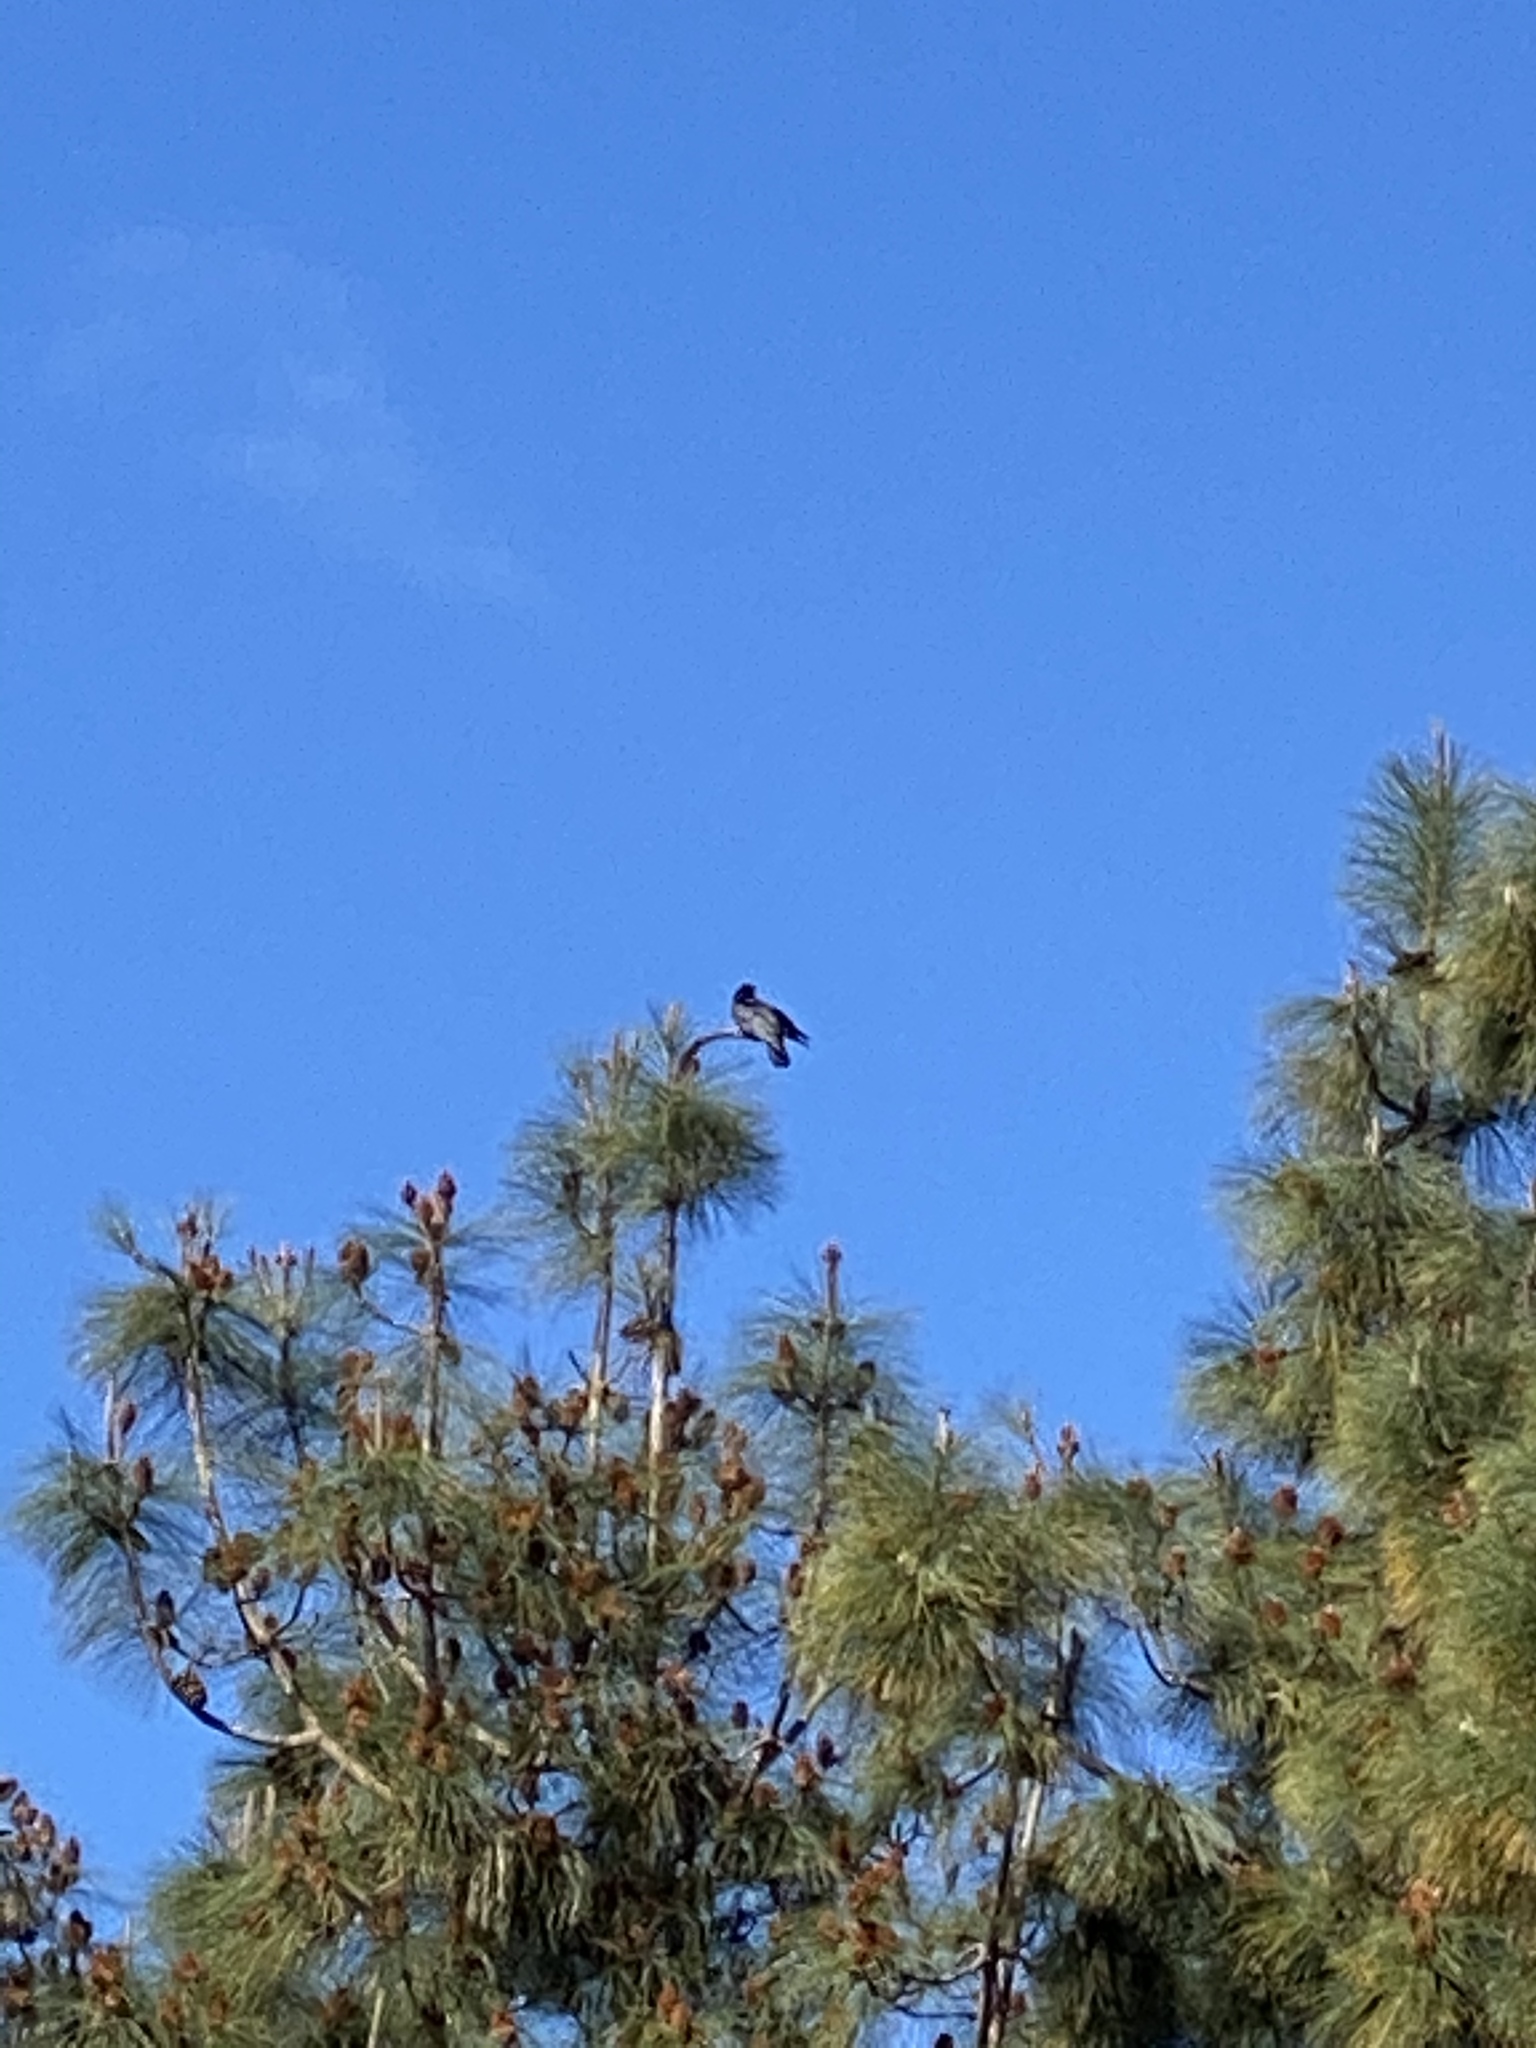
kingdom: Animalia
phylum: Chordata
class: Aves
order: Passeriformes
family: Corvidae
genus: Corvus
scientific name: Corvus brachyrhynchos
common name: American crow
